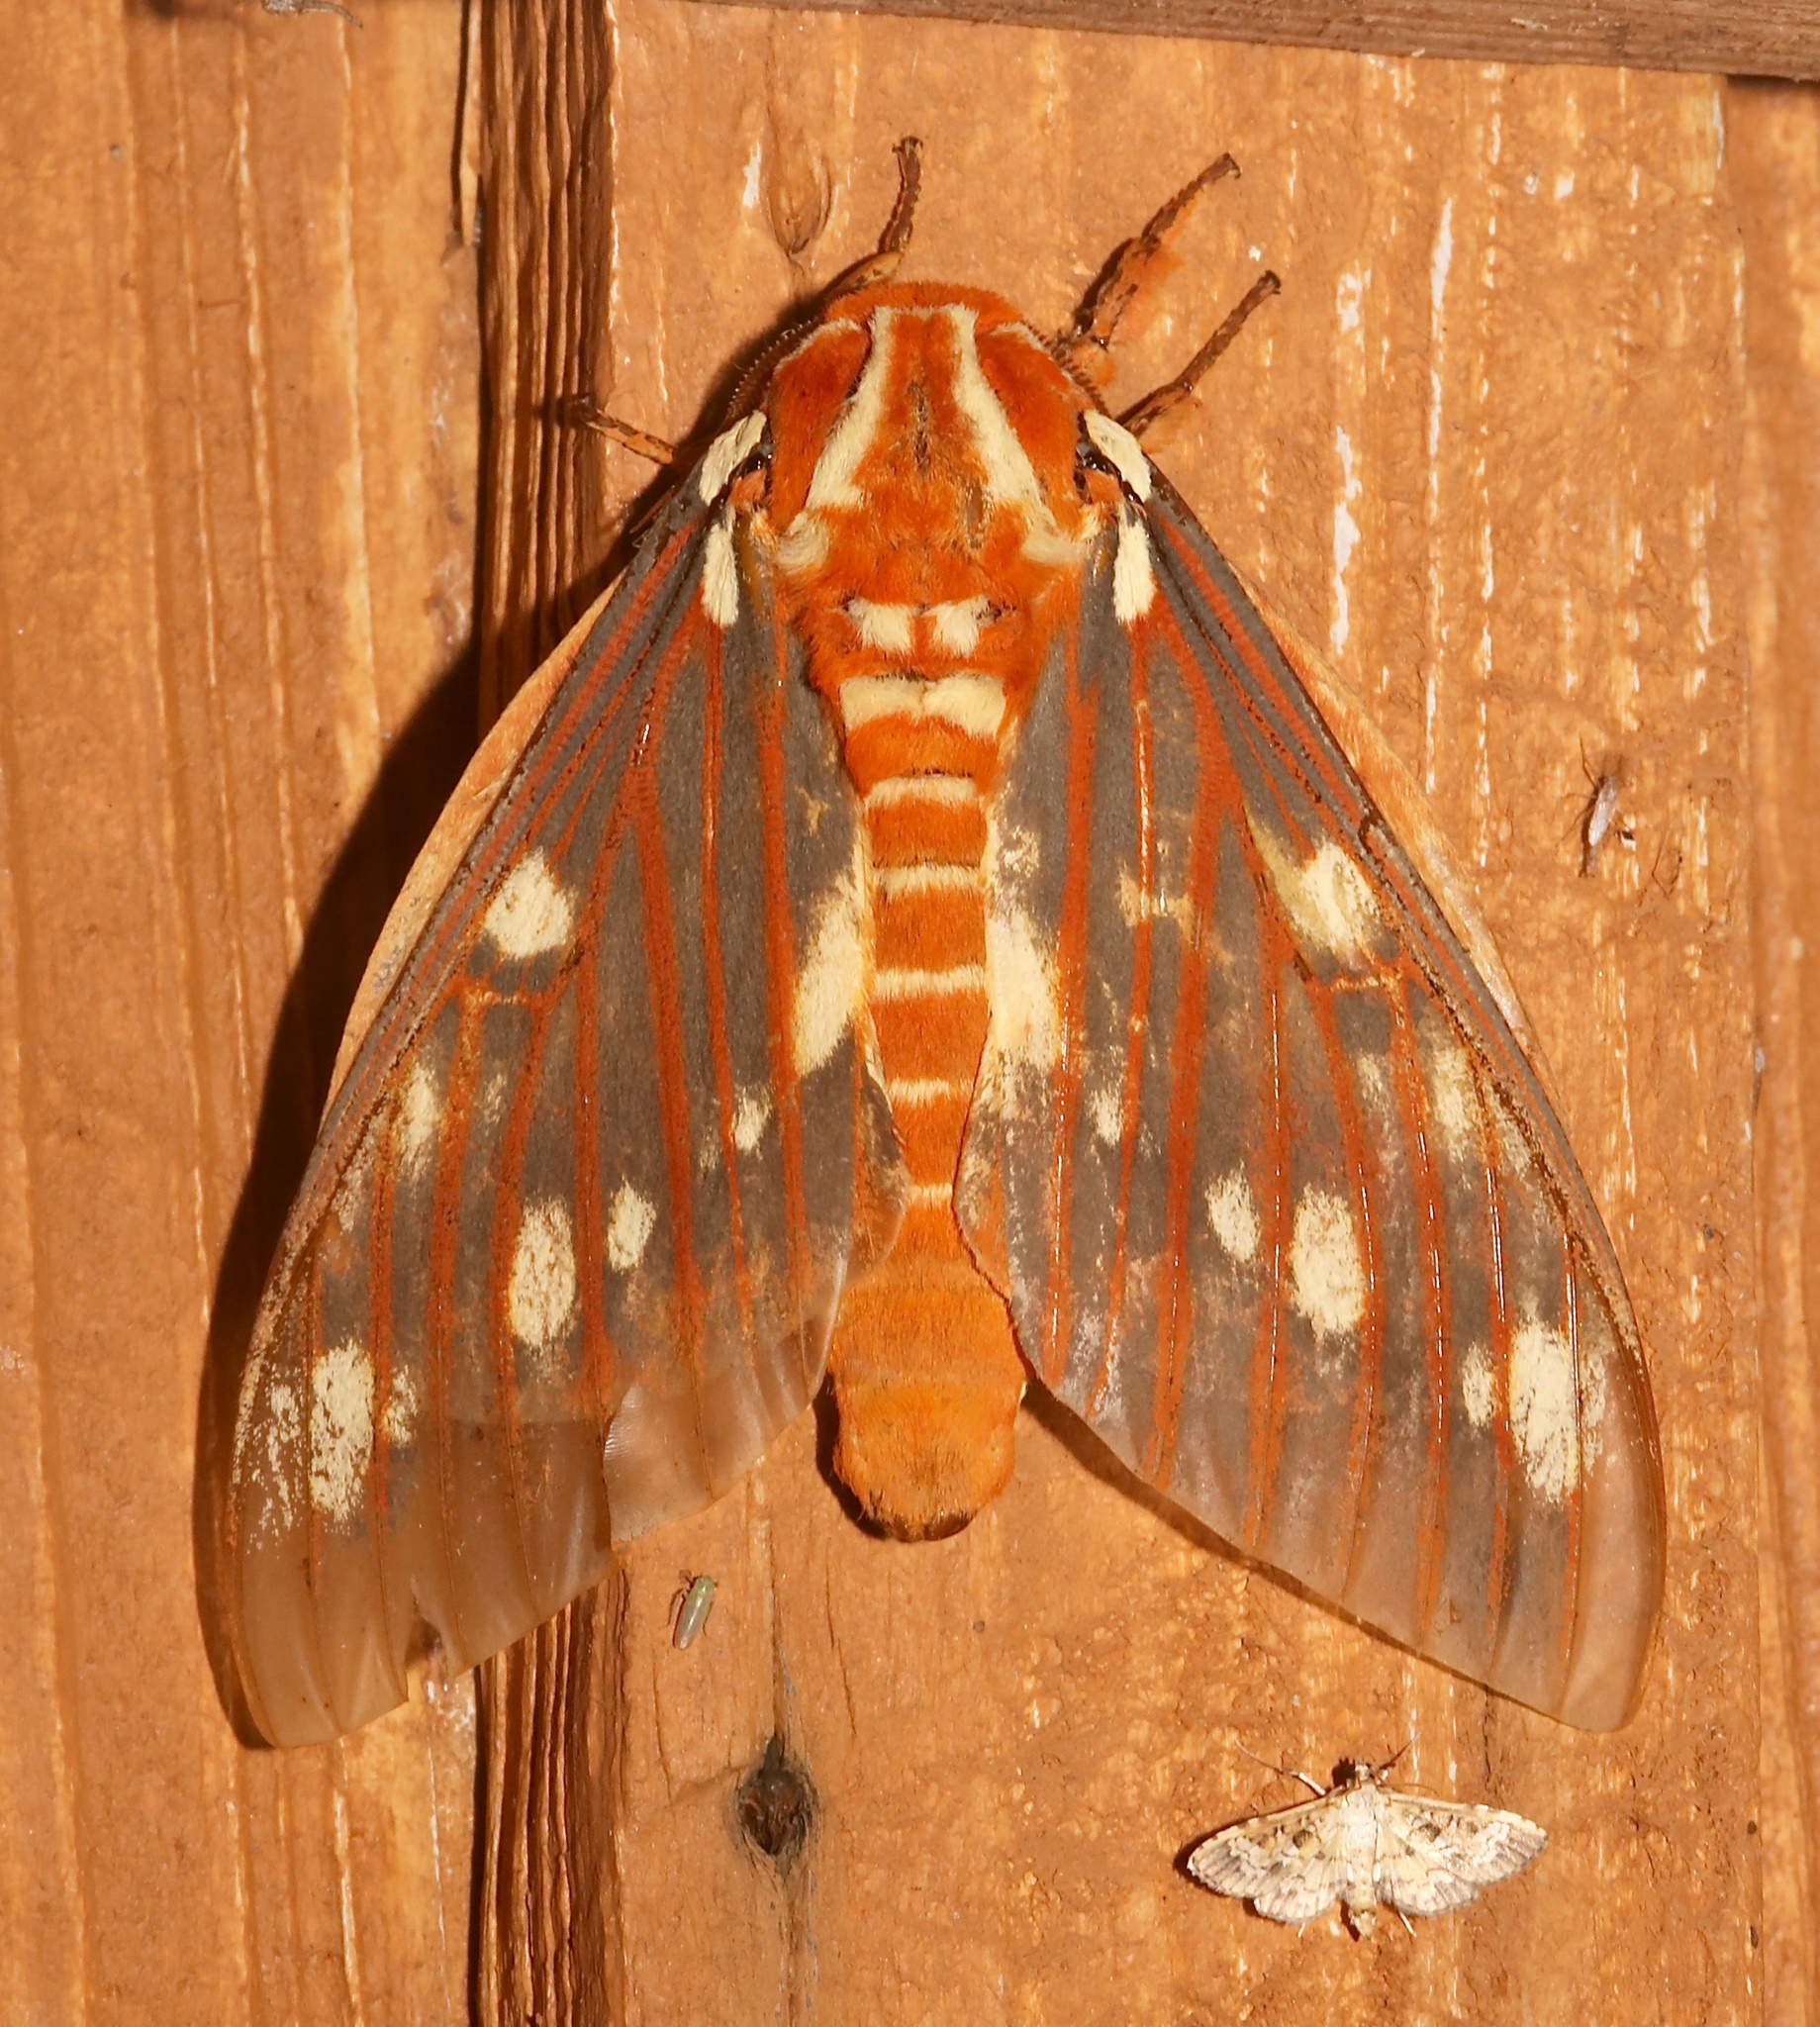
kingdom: Animalia
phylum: Arthropoda
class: Insecta
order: Lepidoptera
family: Saturniidae
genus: Citheronia
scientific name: Citheronia regalis
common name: Hickory horned devil
